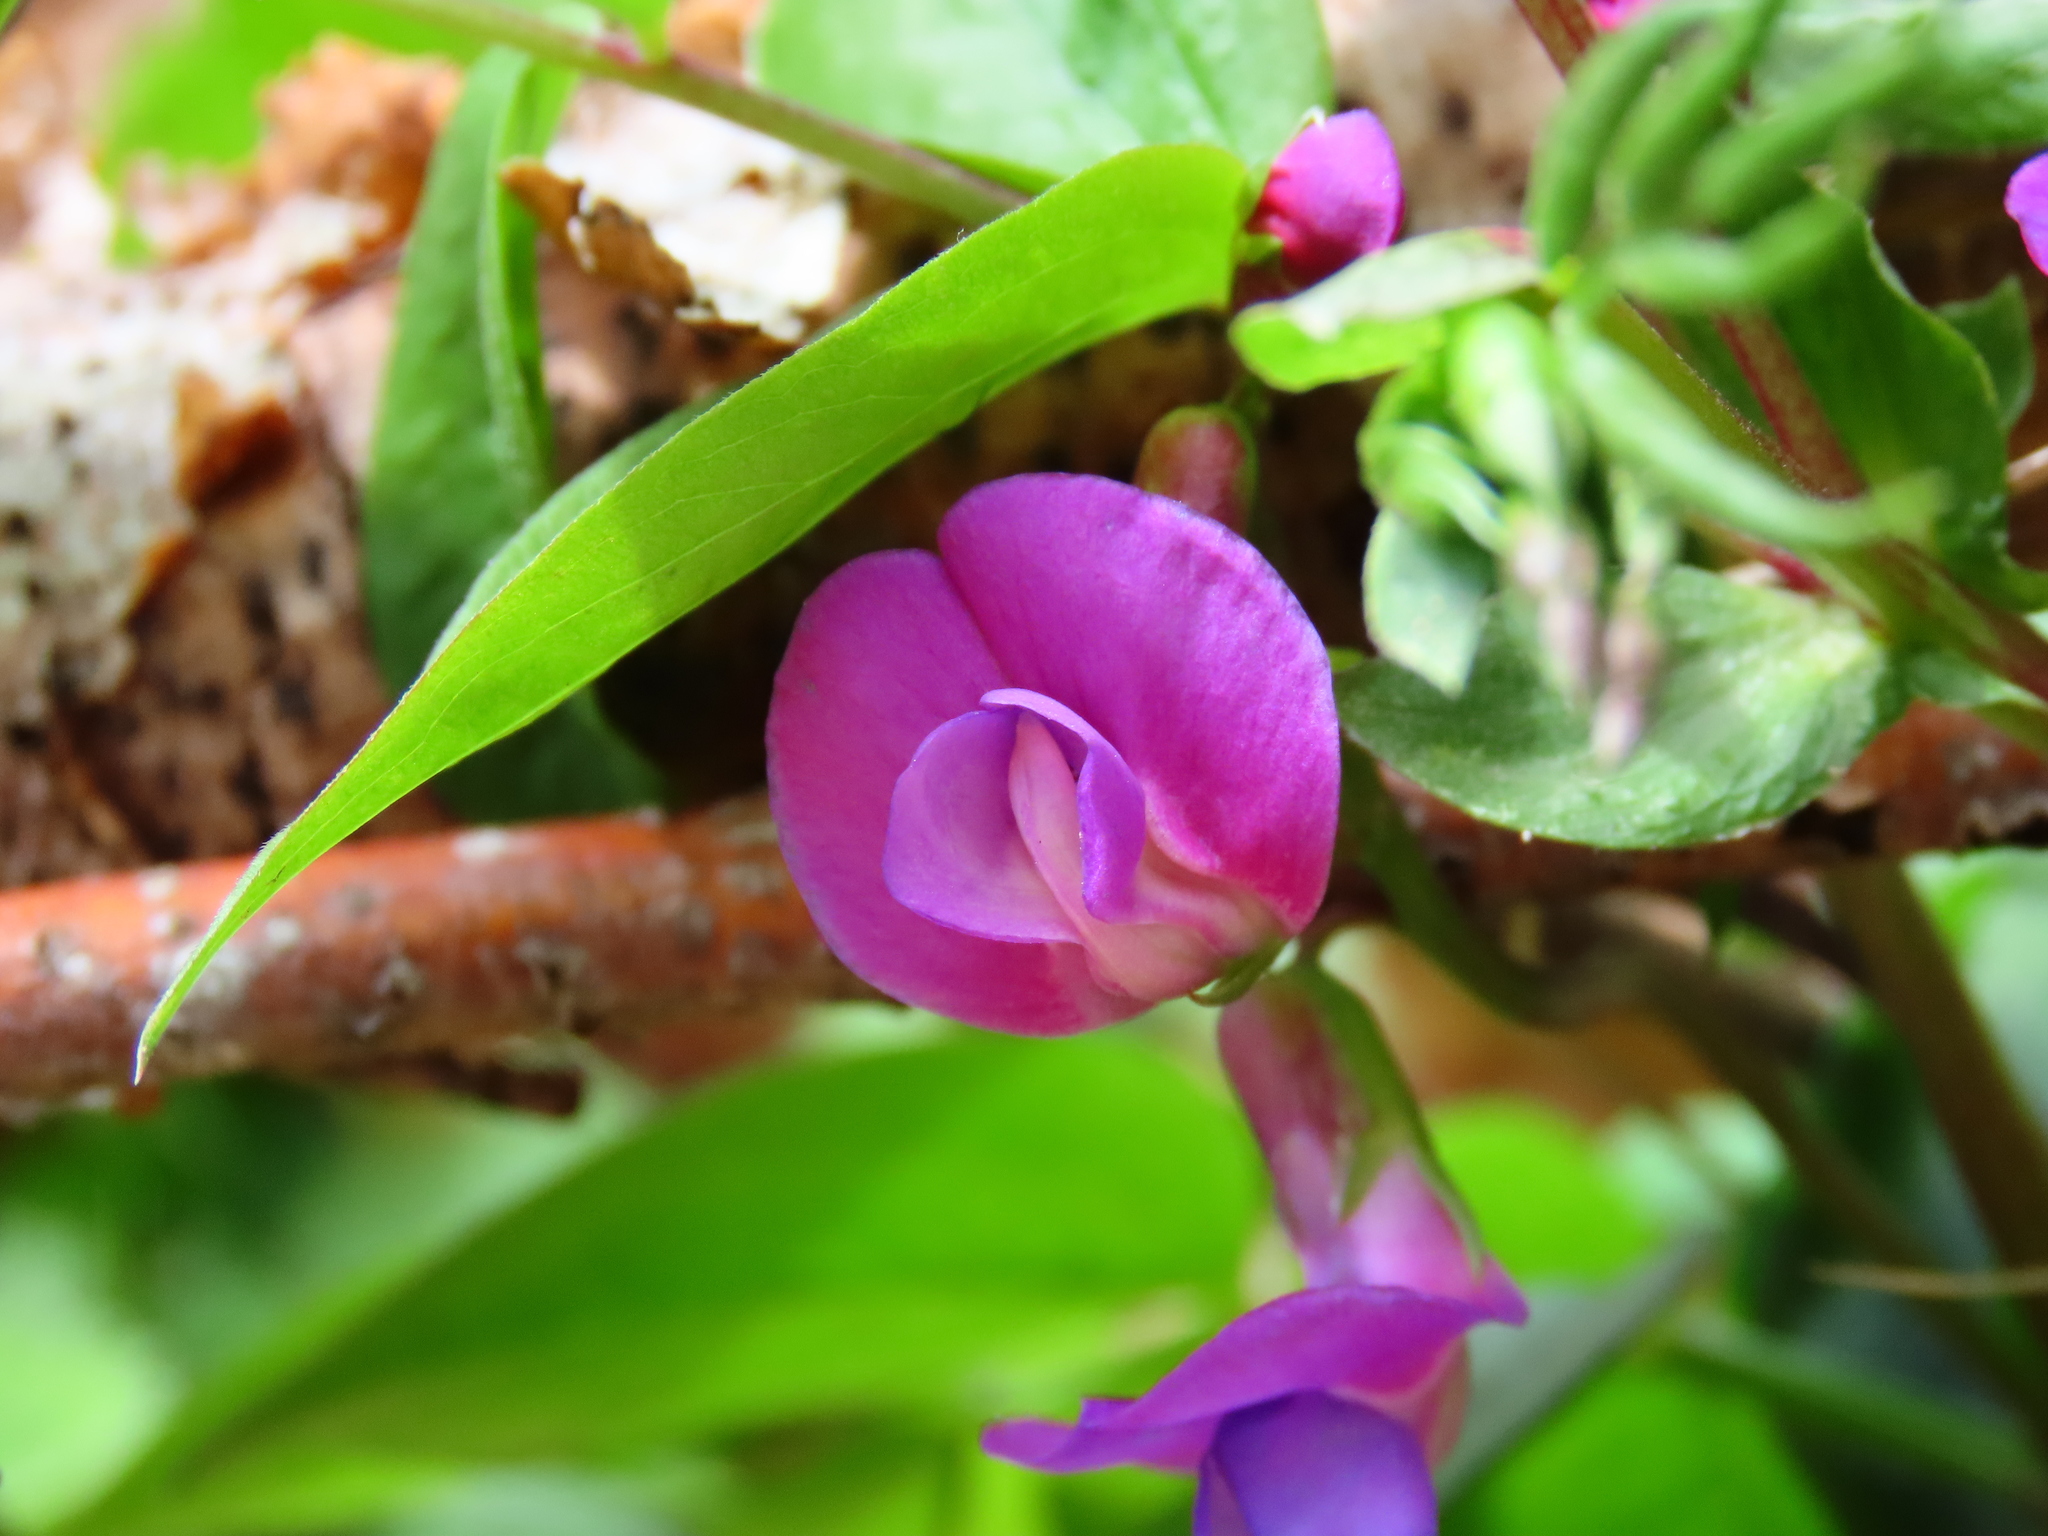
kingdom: Plantae
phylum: Tracheophyta
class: Magnoliopsida
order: Fabales
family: Fabaceae
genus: Lathyrus
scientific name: Lathyrus vernus
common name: Spring pea
